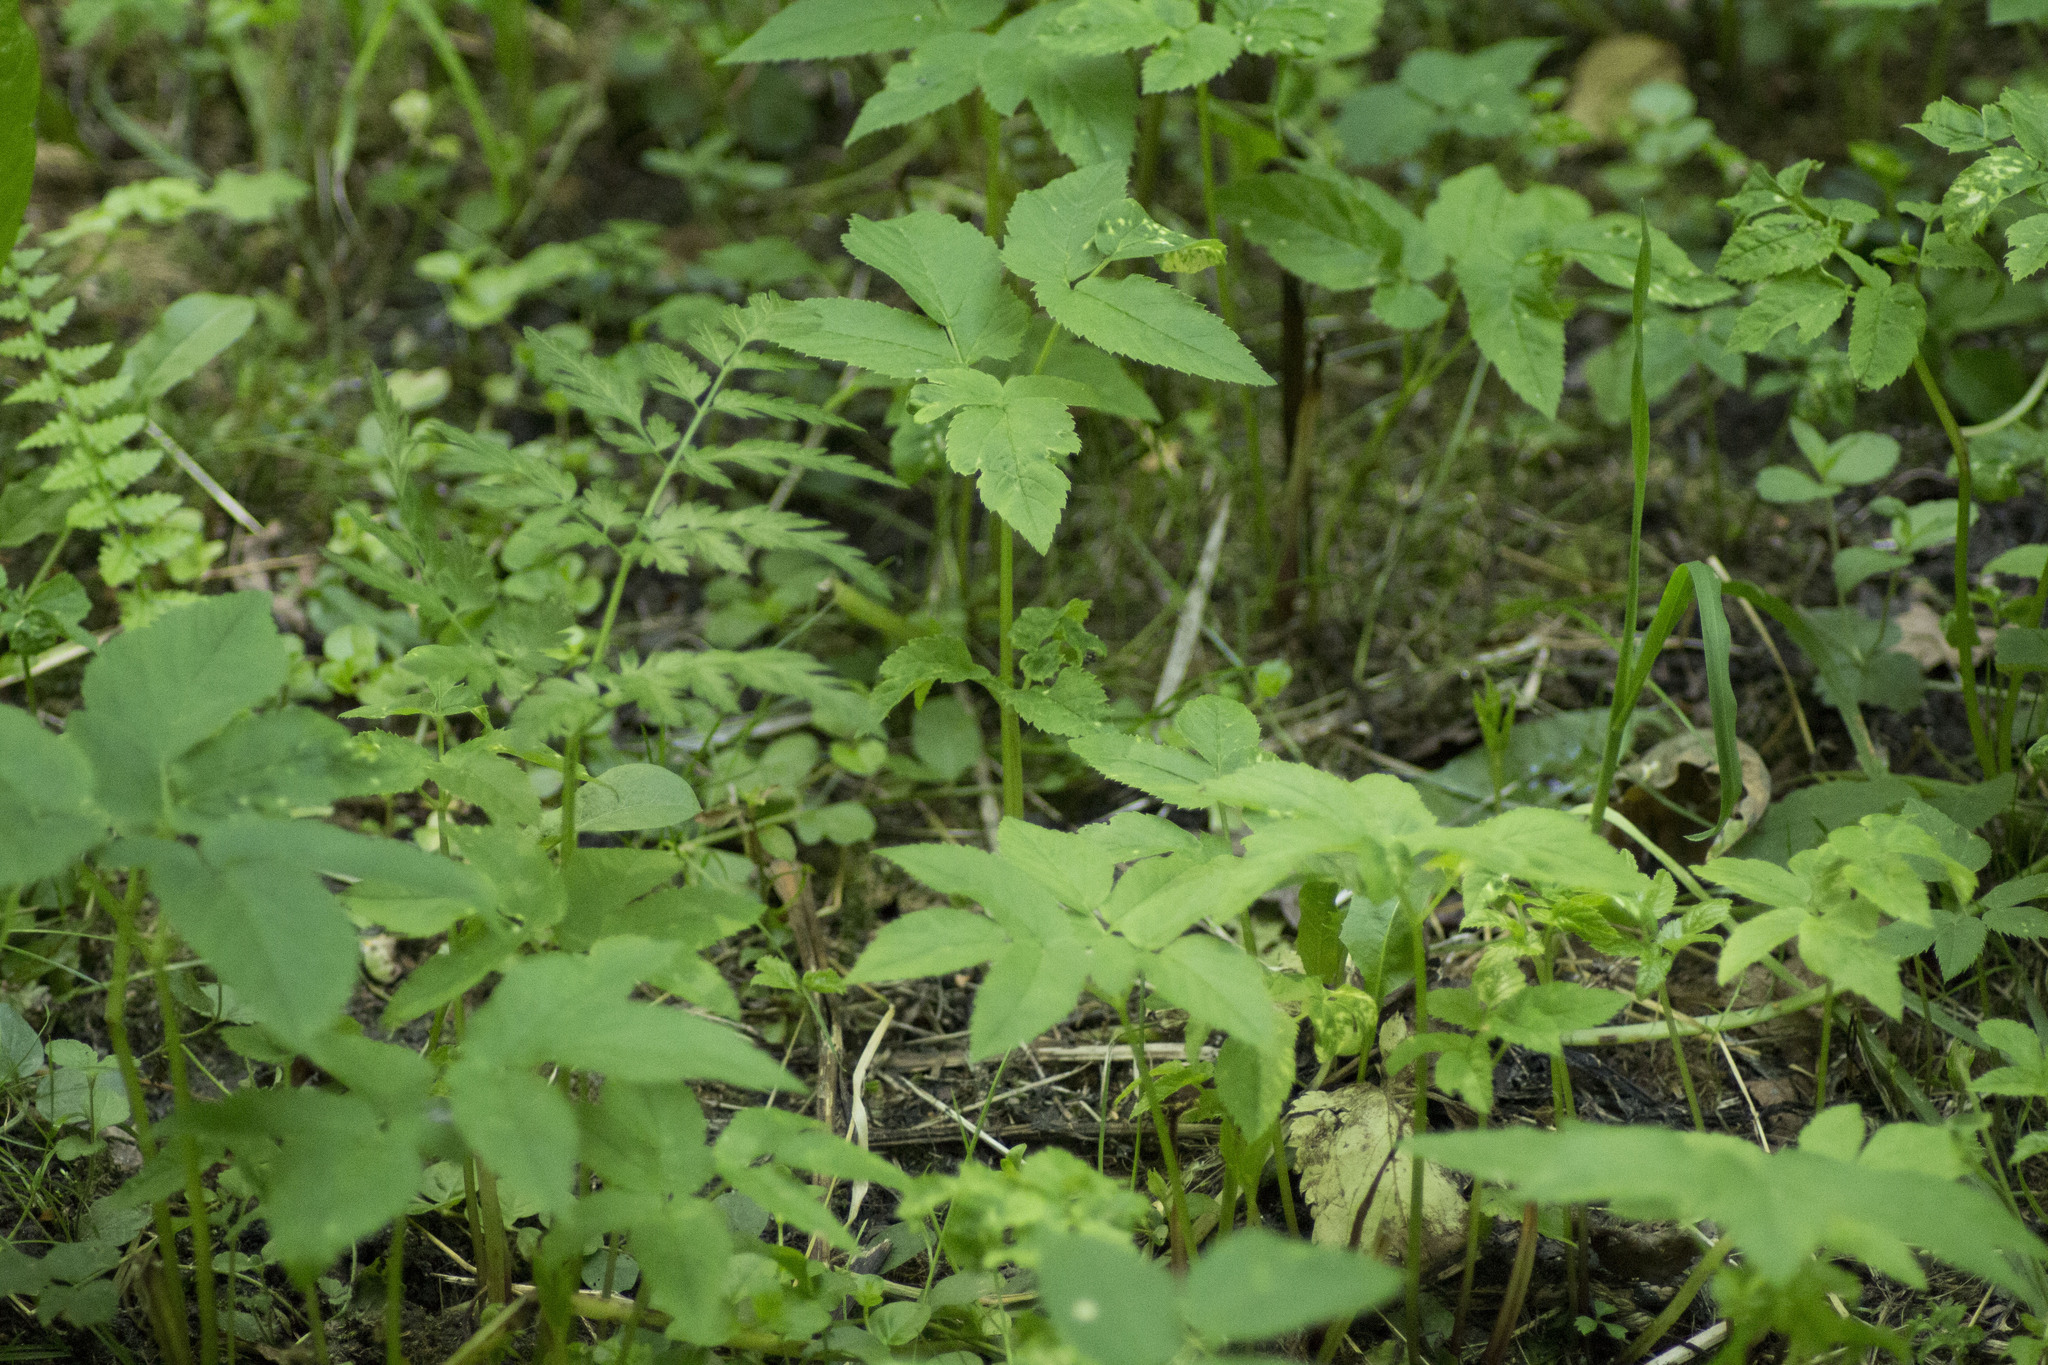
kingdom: Plantae
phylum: Tracheophyta
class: Magnoliopsida
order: Apiales
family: Apiaceae
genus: Aegopodium
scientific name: Aegopodium podagraria
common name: Ground-elder
